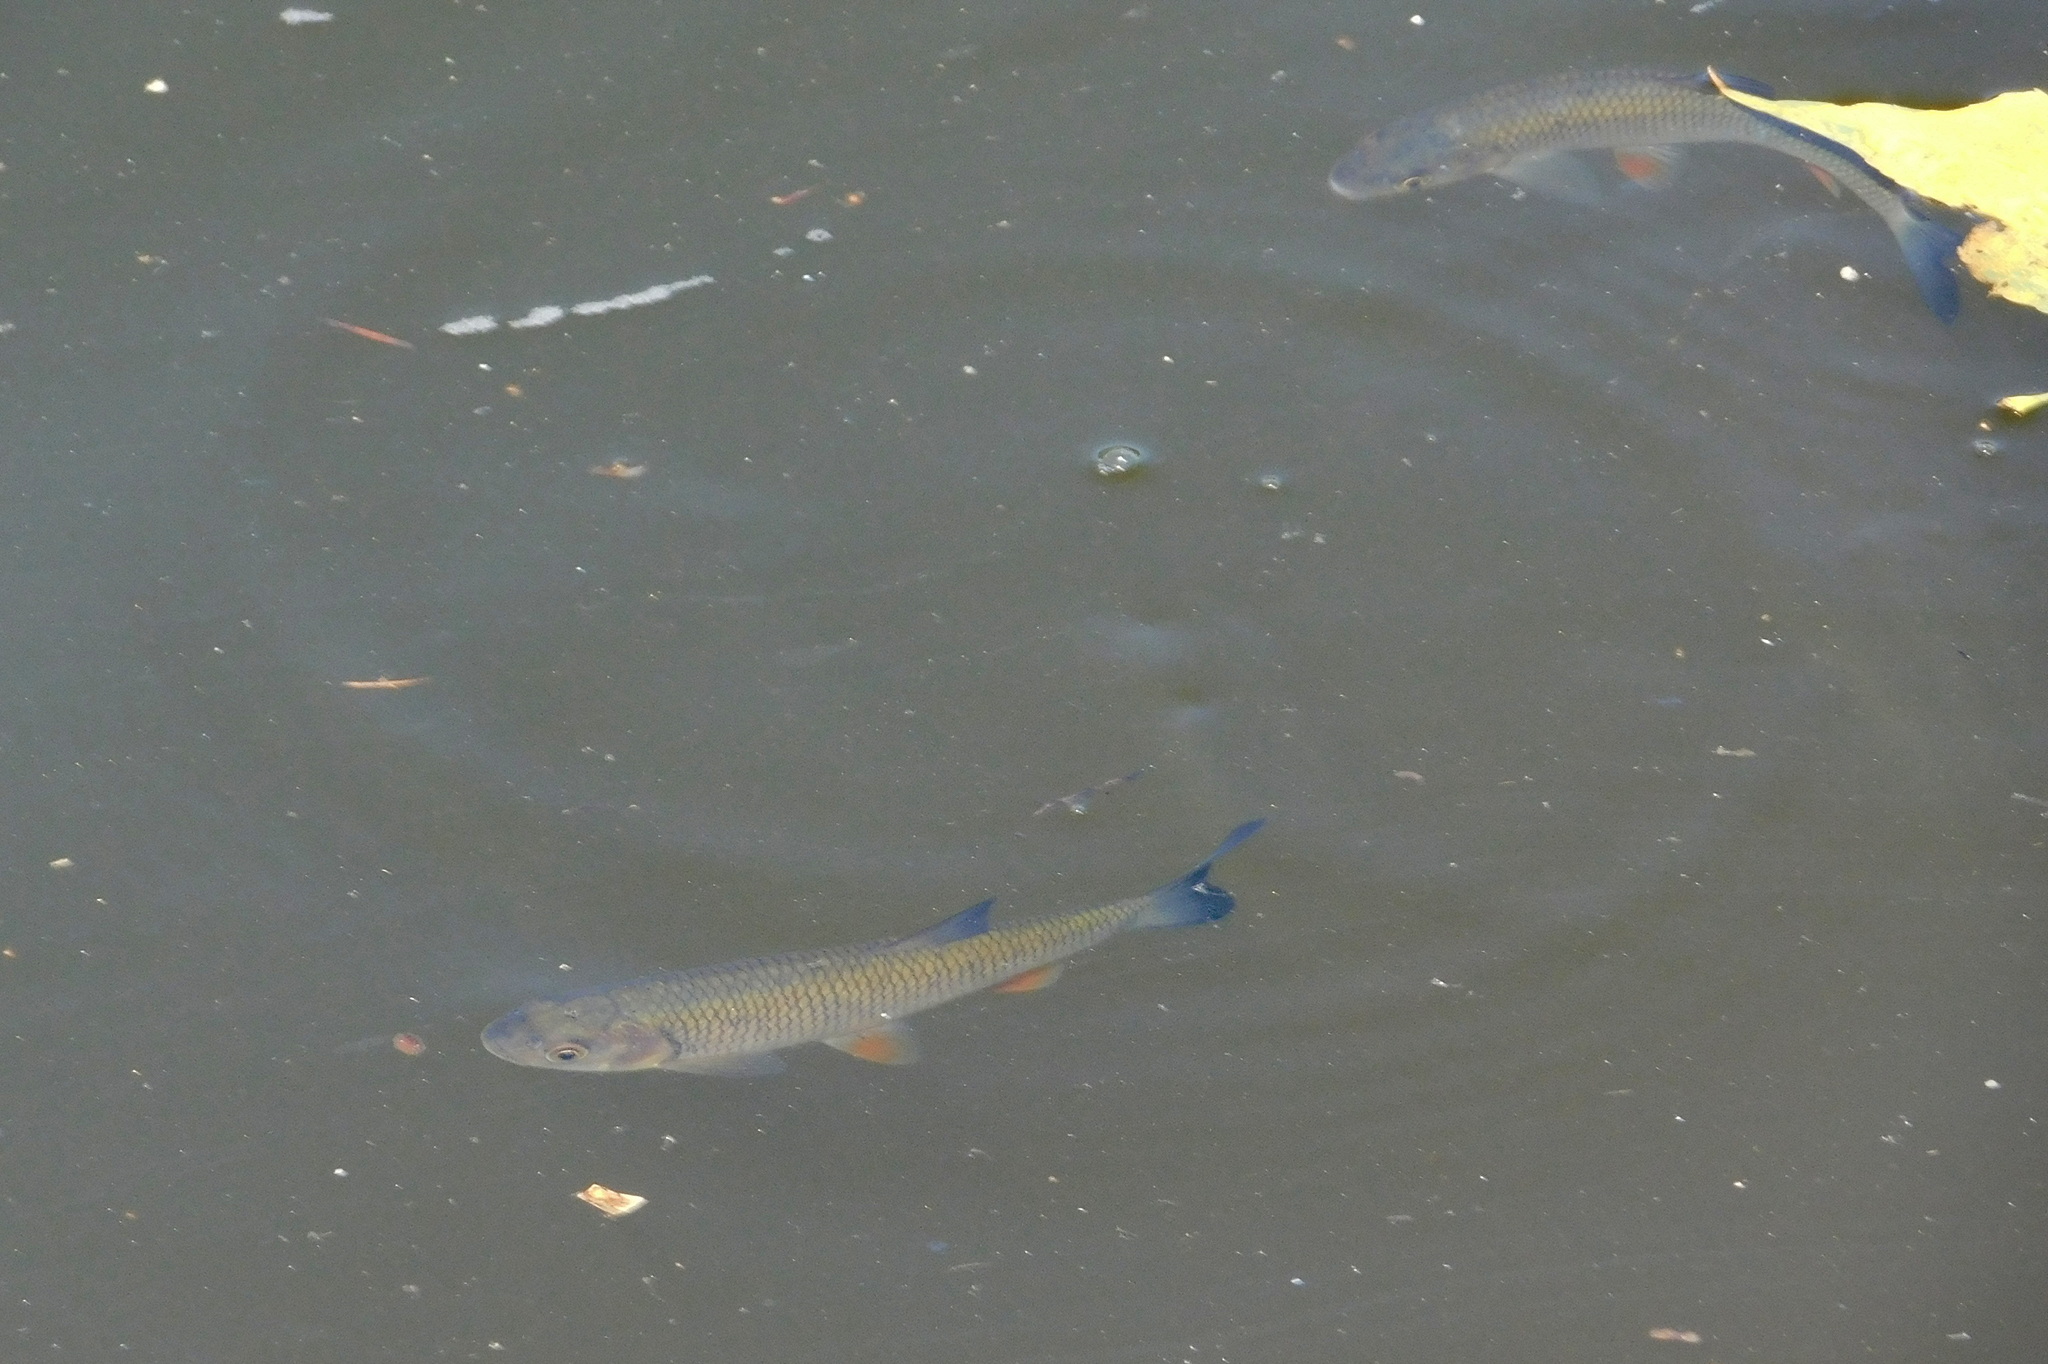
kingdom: Animalia
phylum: Chordata
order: Cypriniformes
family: Cyprinidae
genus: Squalius
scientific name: Squalius cephalus
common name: Chub
